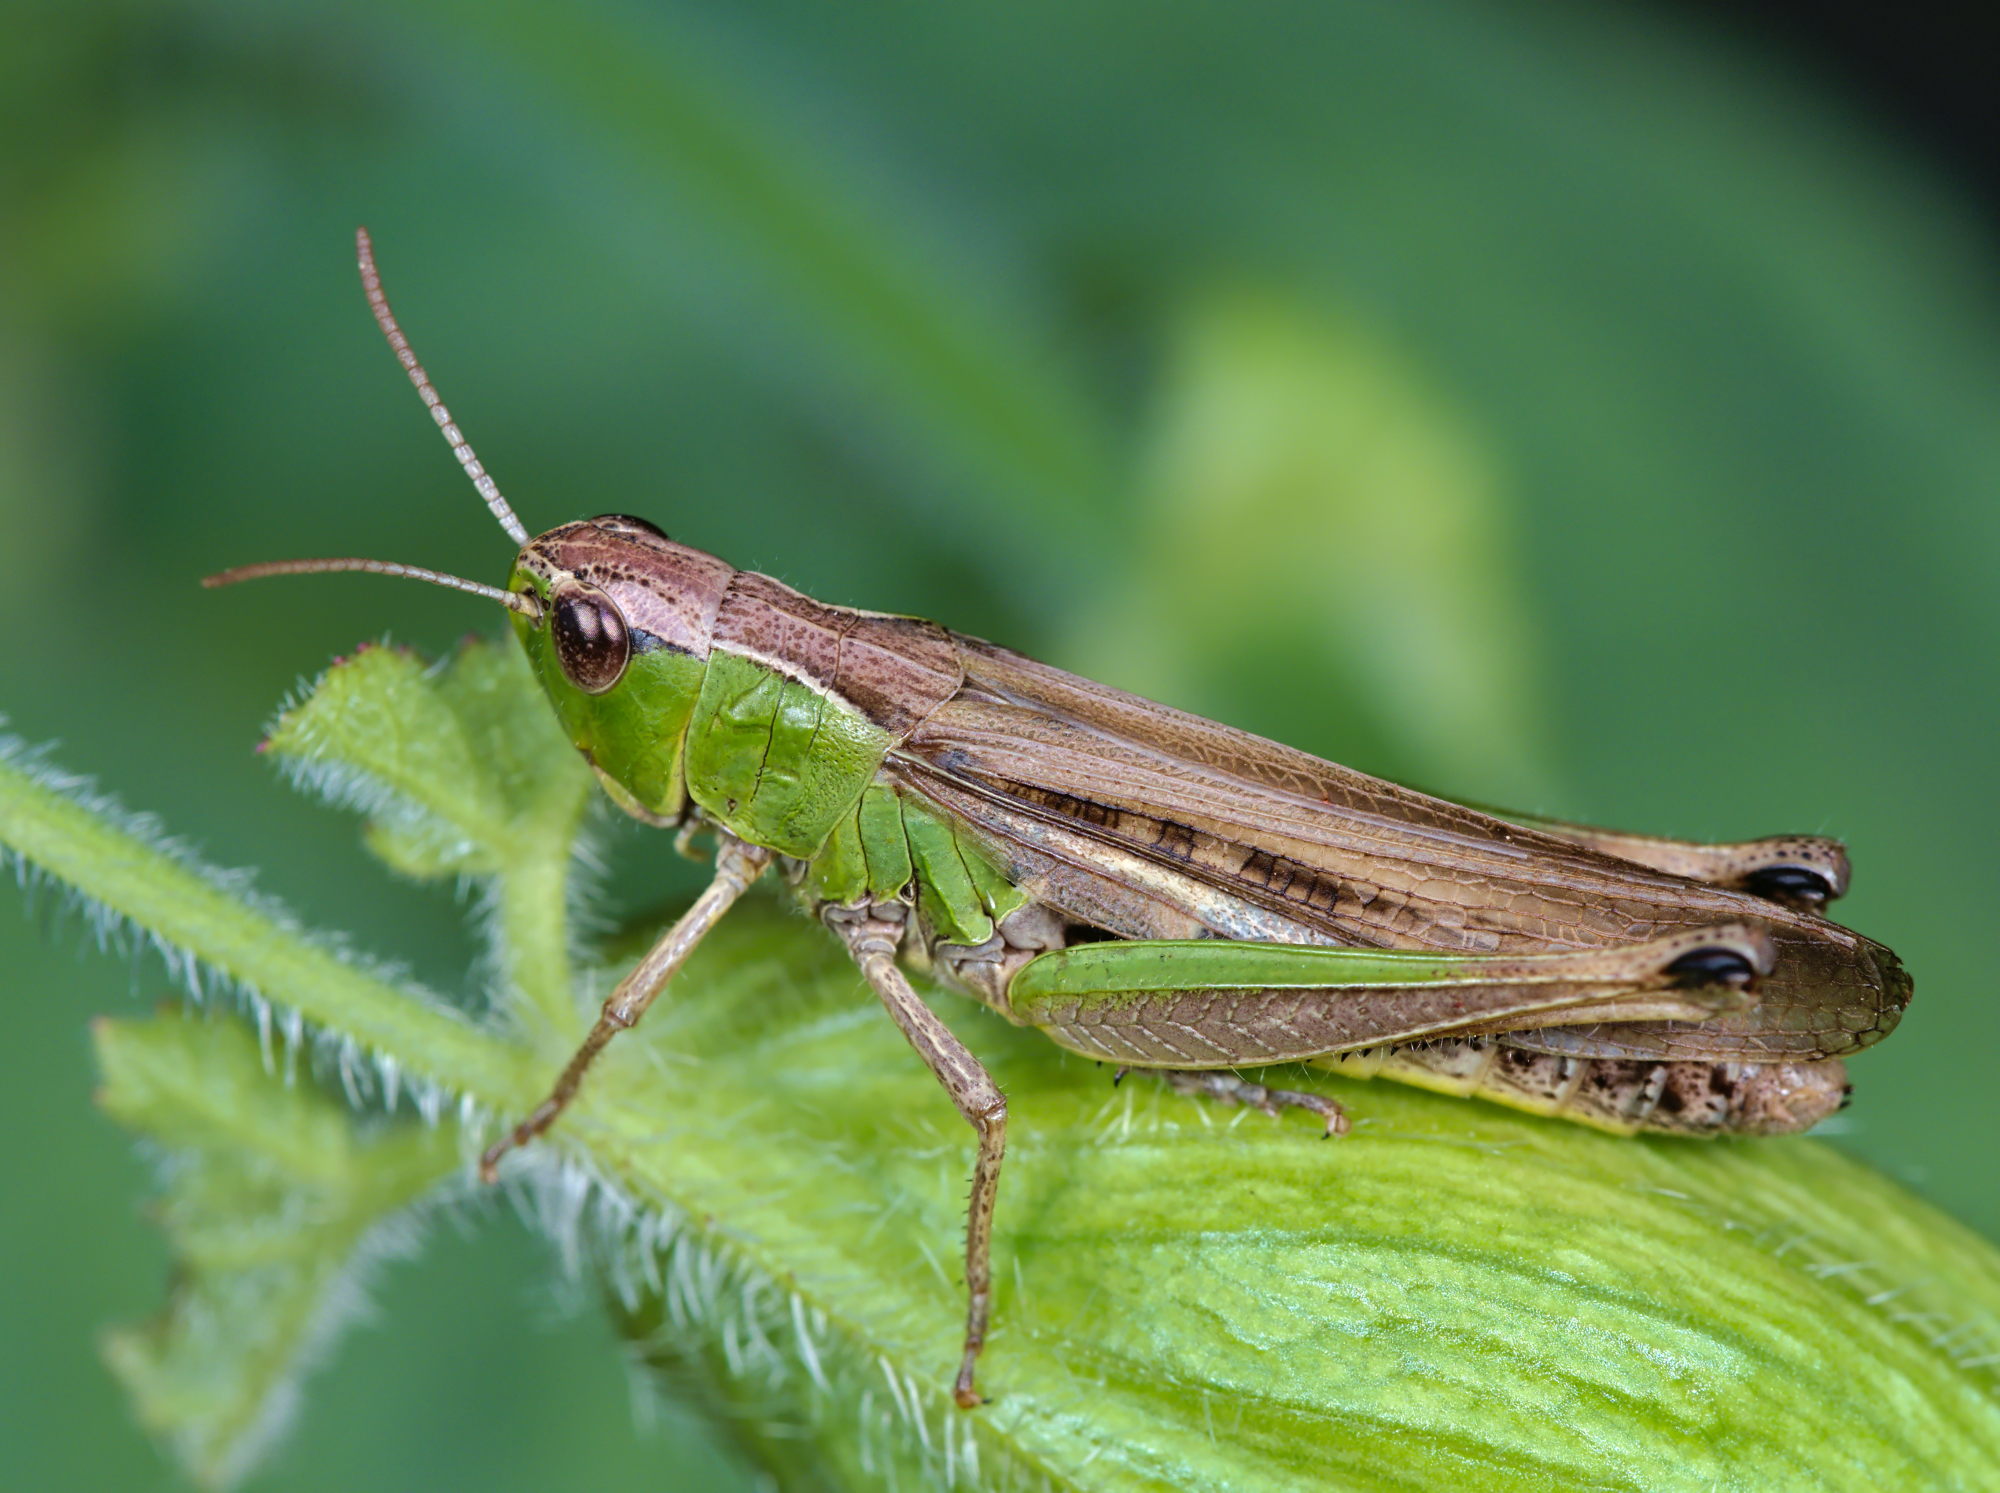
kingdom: Animalia
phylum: Arthropoda
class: Insecta
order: Orthoptera
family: Acrididae
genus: Pseudochorthippus
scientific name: Pseudochorthippus parallelus
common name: Meadow grasshopper
